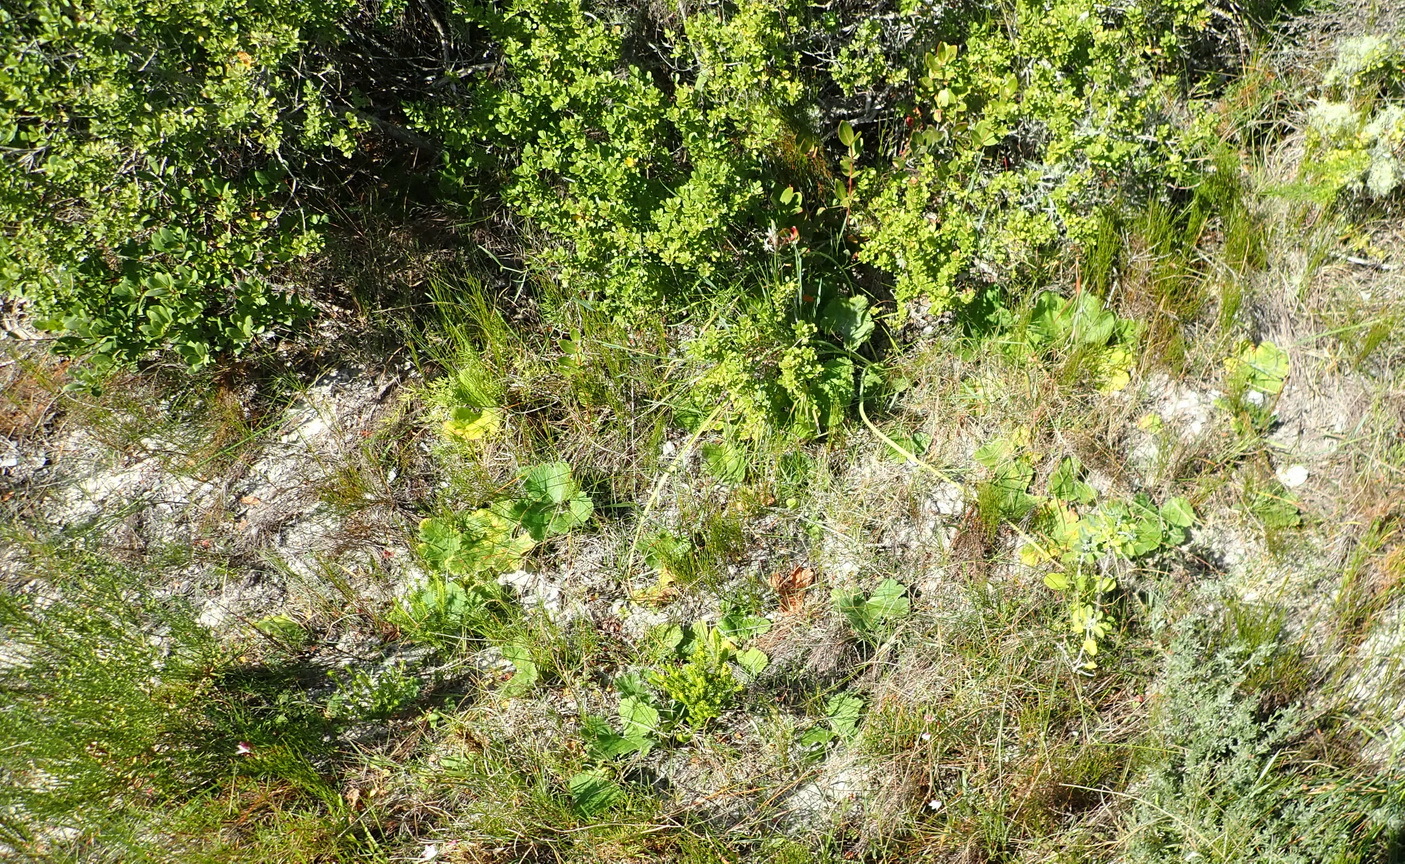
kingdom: Plantae
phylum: Tracheophyta
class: Magnoliopsida
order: Geraniales
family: Geraniaceae
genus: Pelargonium
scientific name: Pelargonium lobatum
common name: Vine-leaf pelargonium
